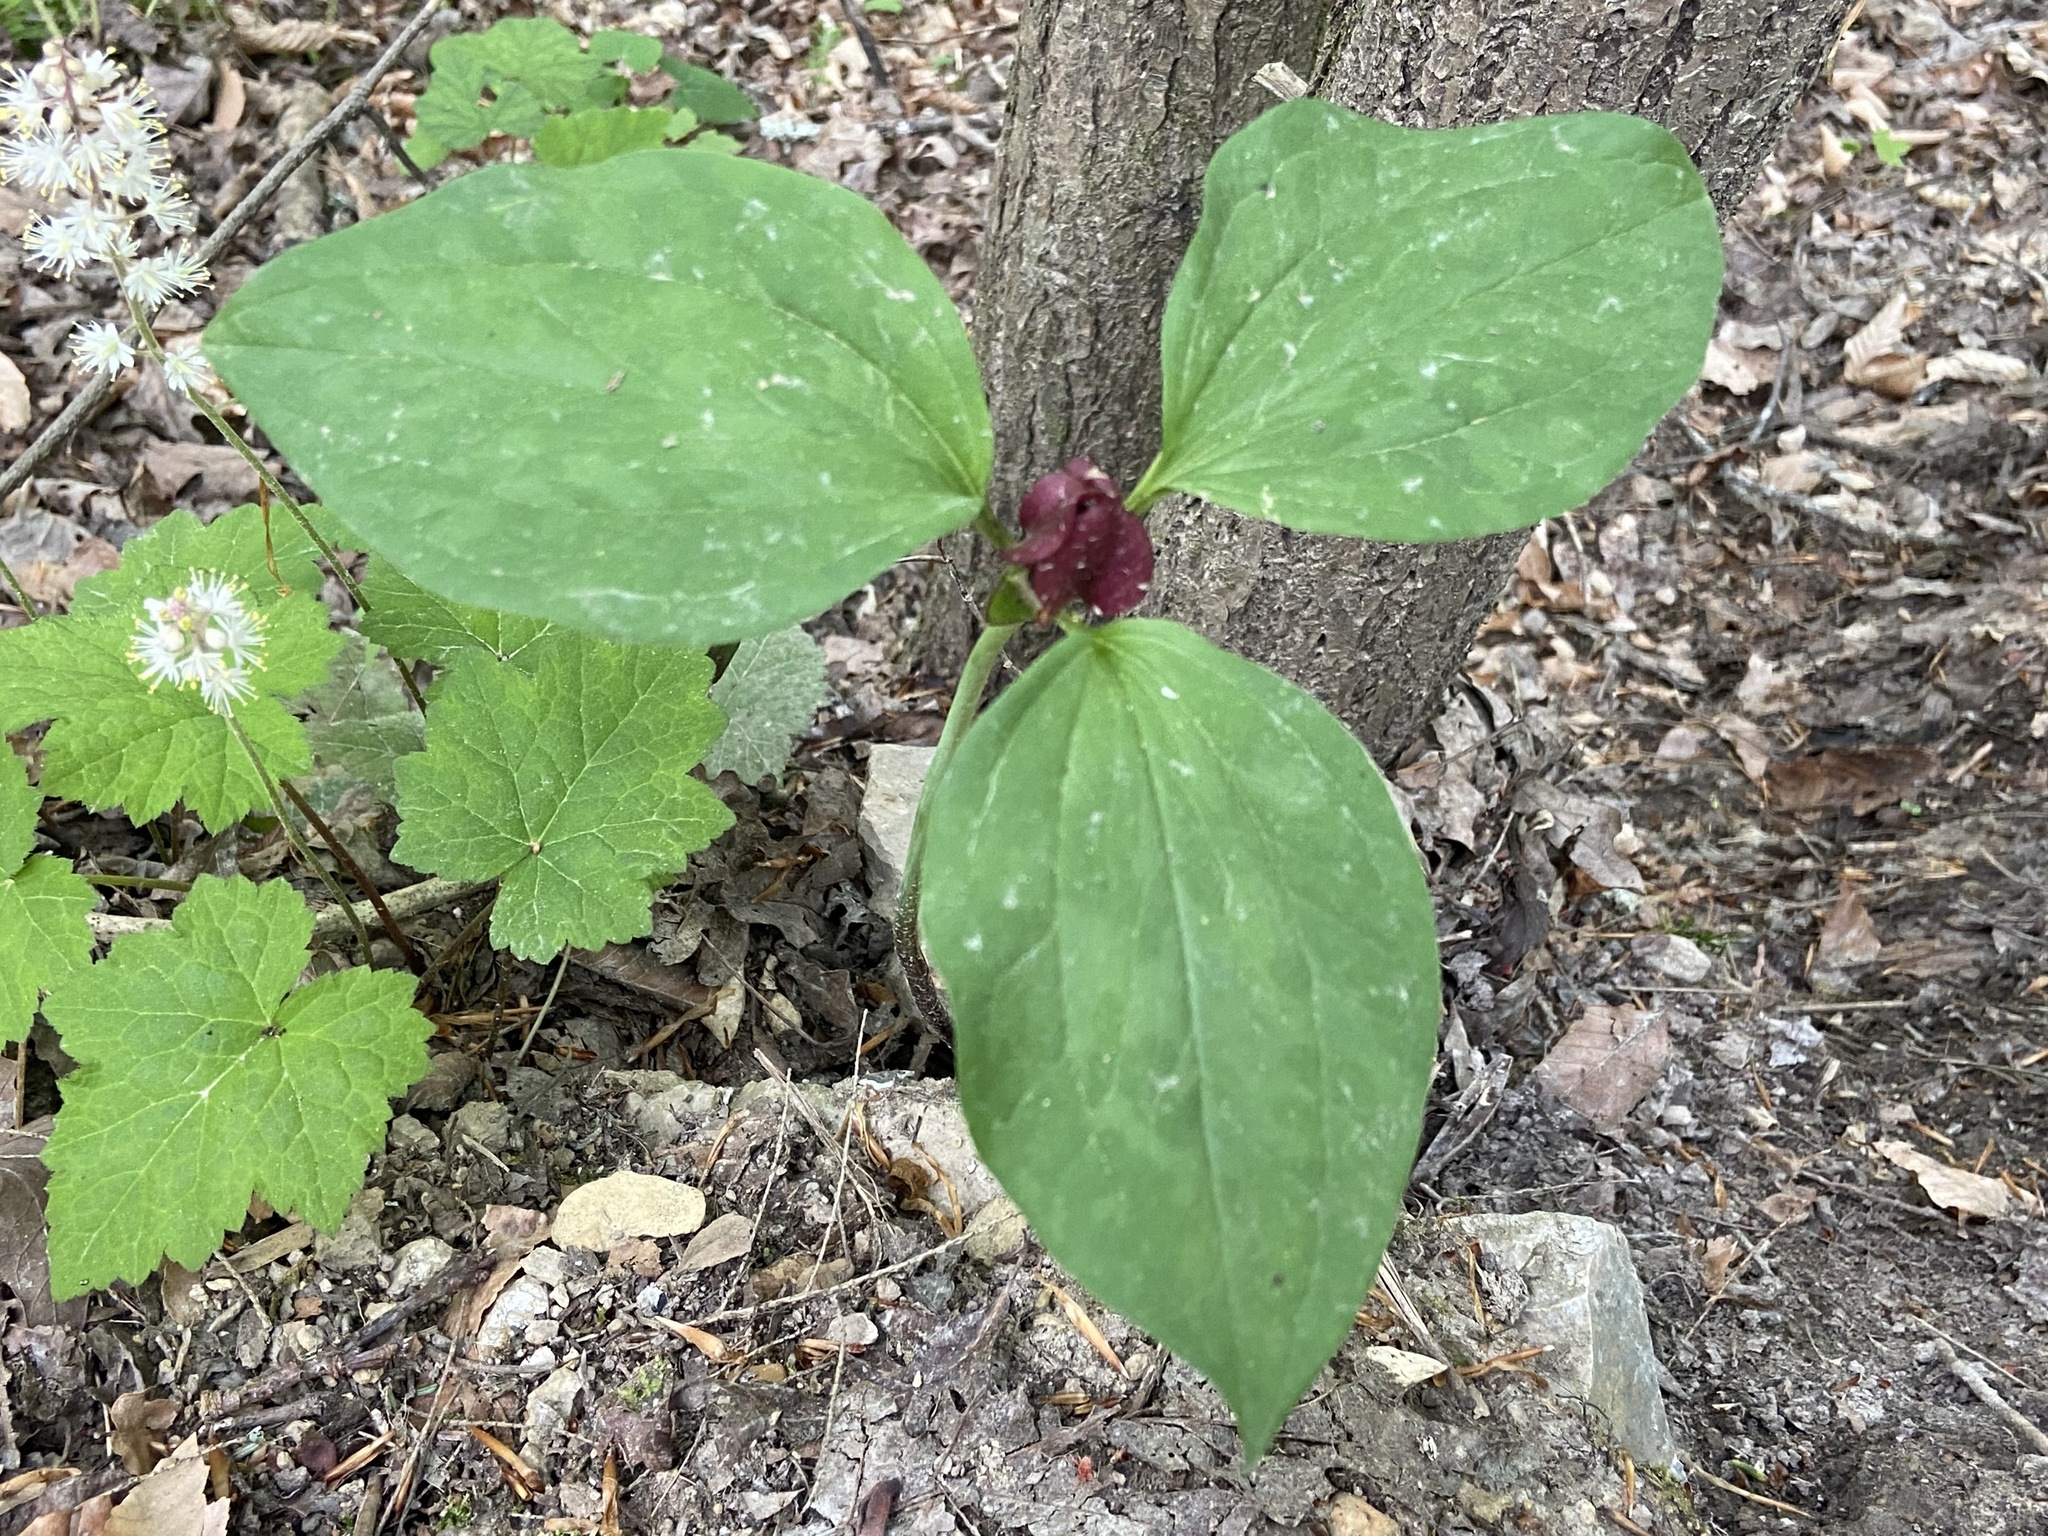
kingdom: Plantae
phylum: Tracheophyta
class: Liliopsida
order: Liliales
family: Melanthiaceae
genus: Trillium
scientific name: Trillium recurvatum
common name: Bloody butcher
